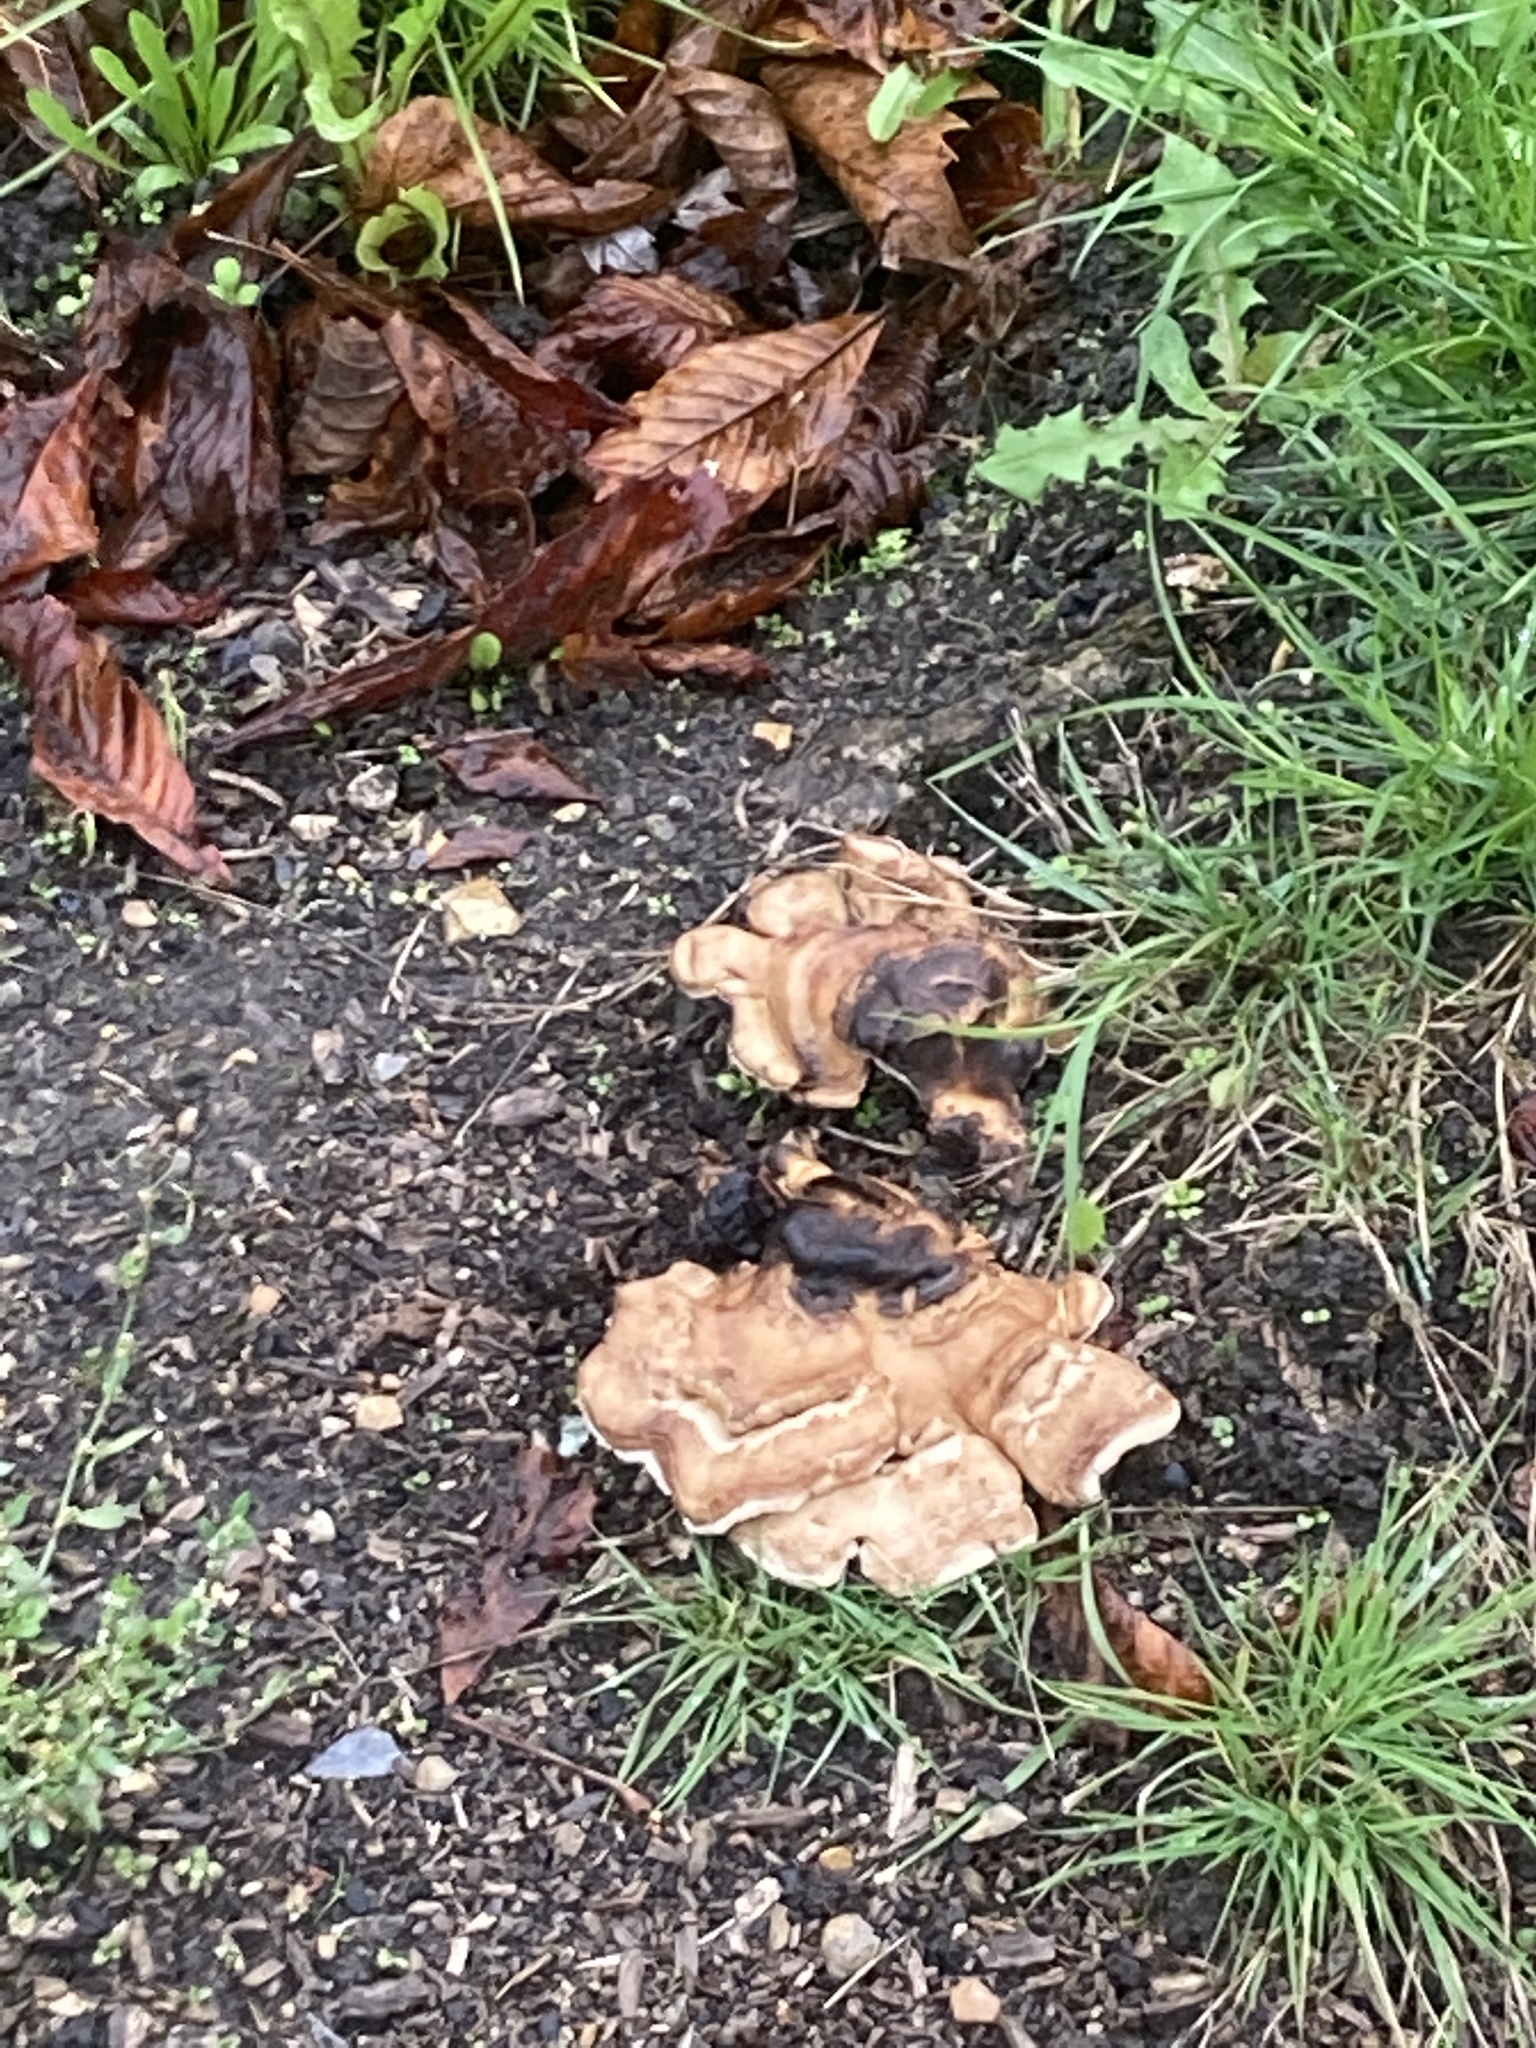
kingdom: Fungi
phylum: Basidiomycota
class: Agaricomycetes
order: Polyporales
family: Meripilaceae
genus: Meripilus
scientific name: Meripilus giganteus
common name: Giant polypore
